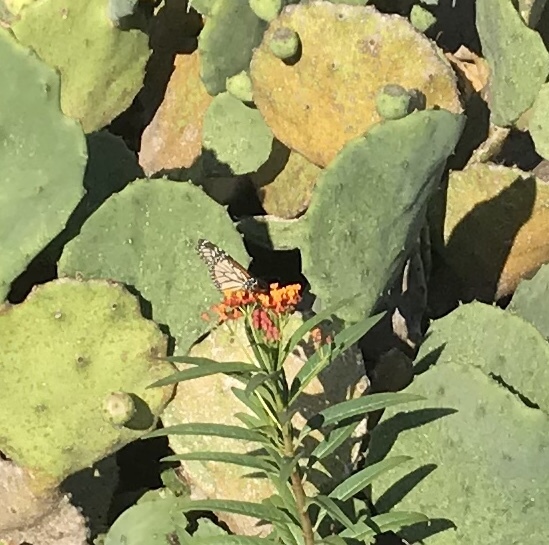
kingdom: Animalia
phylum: Arthropoda
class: Insecta
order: Lepidoptera
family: Nymphalidae
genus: Danaus
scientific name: Danaus plexippus
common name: Monarch
